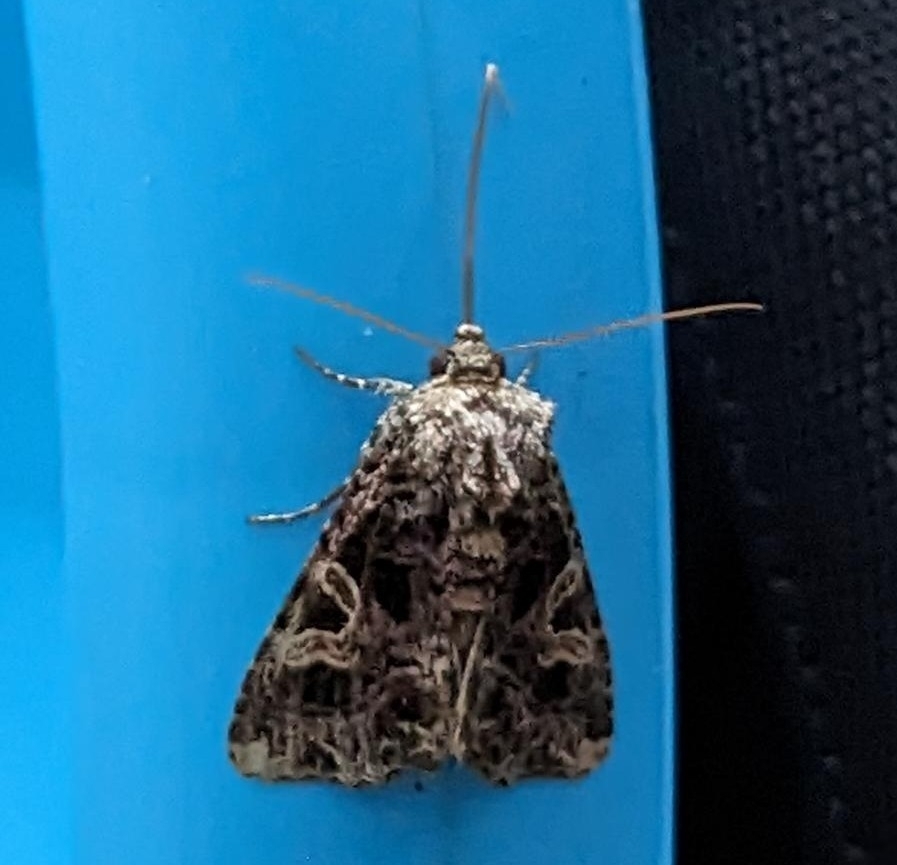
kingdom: Animalia
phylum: Arthropoda
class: Insecta
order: Lepidoptera
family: Noctuidae
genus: Sideridis
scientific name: Sideridis rivularis
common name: Campion
